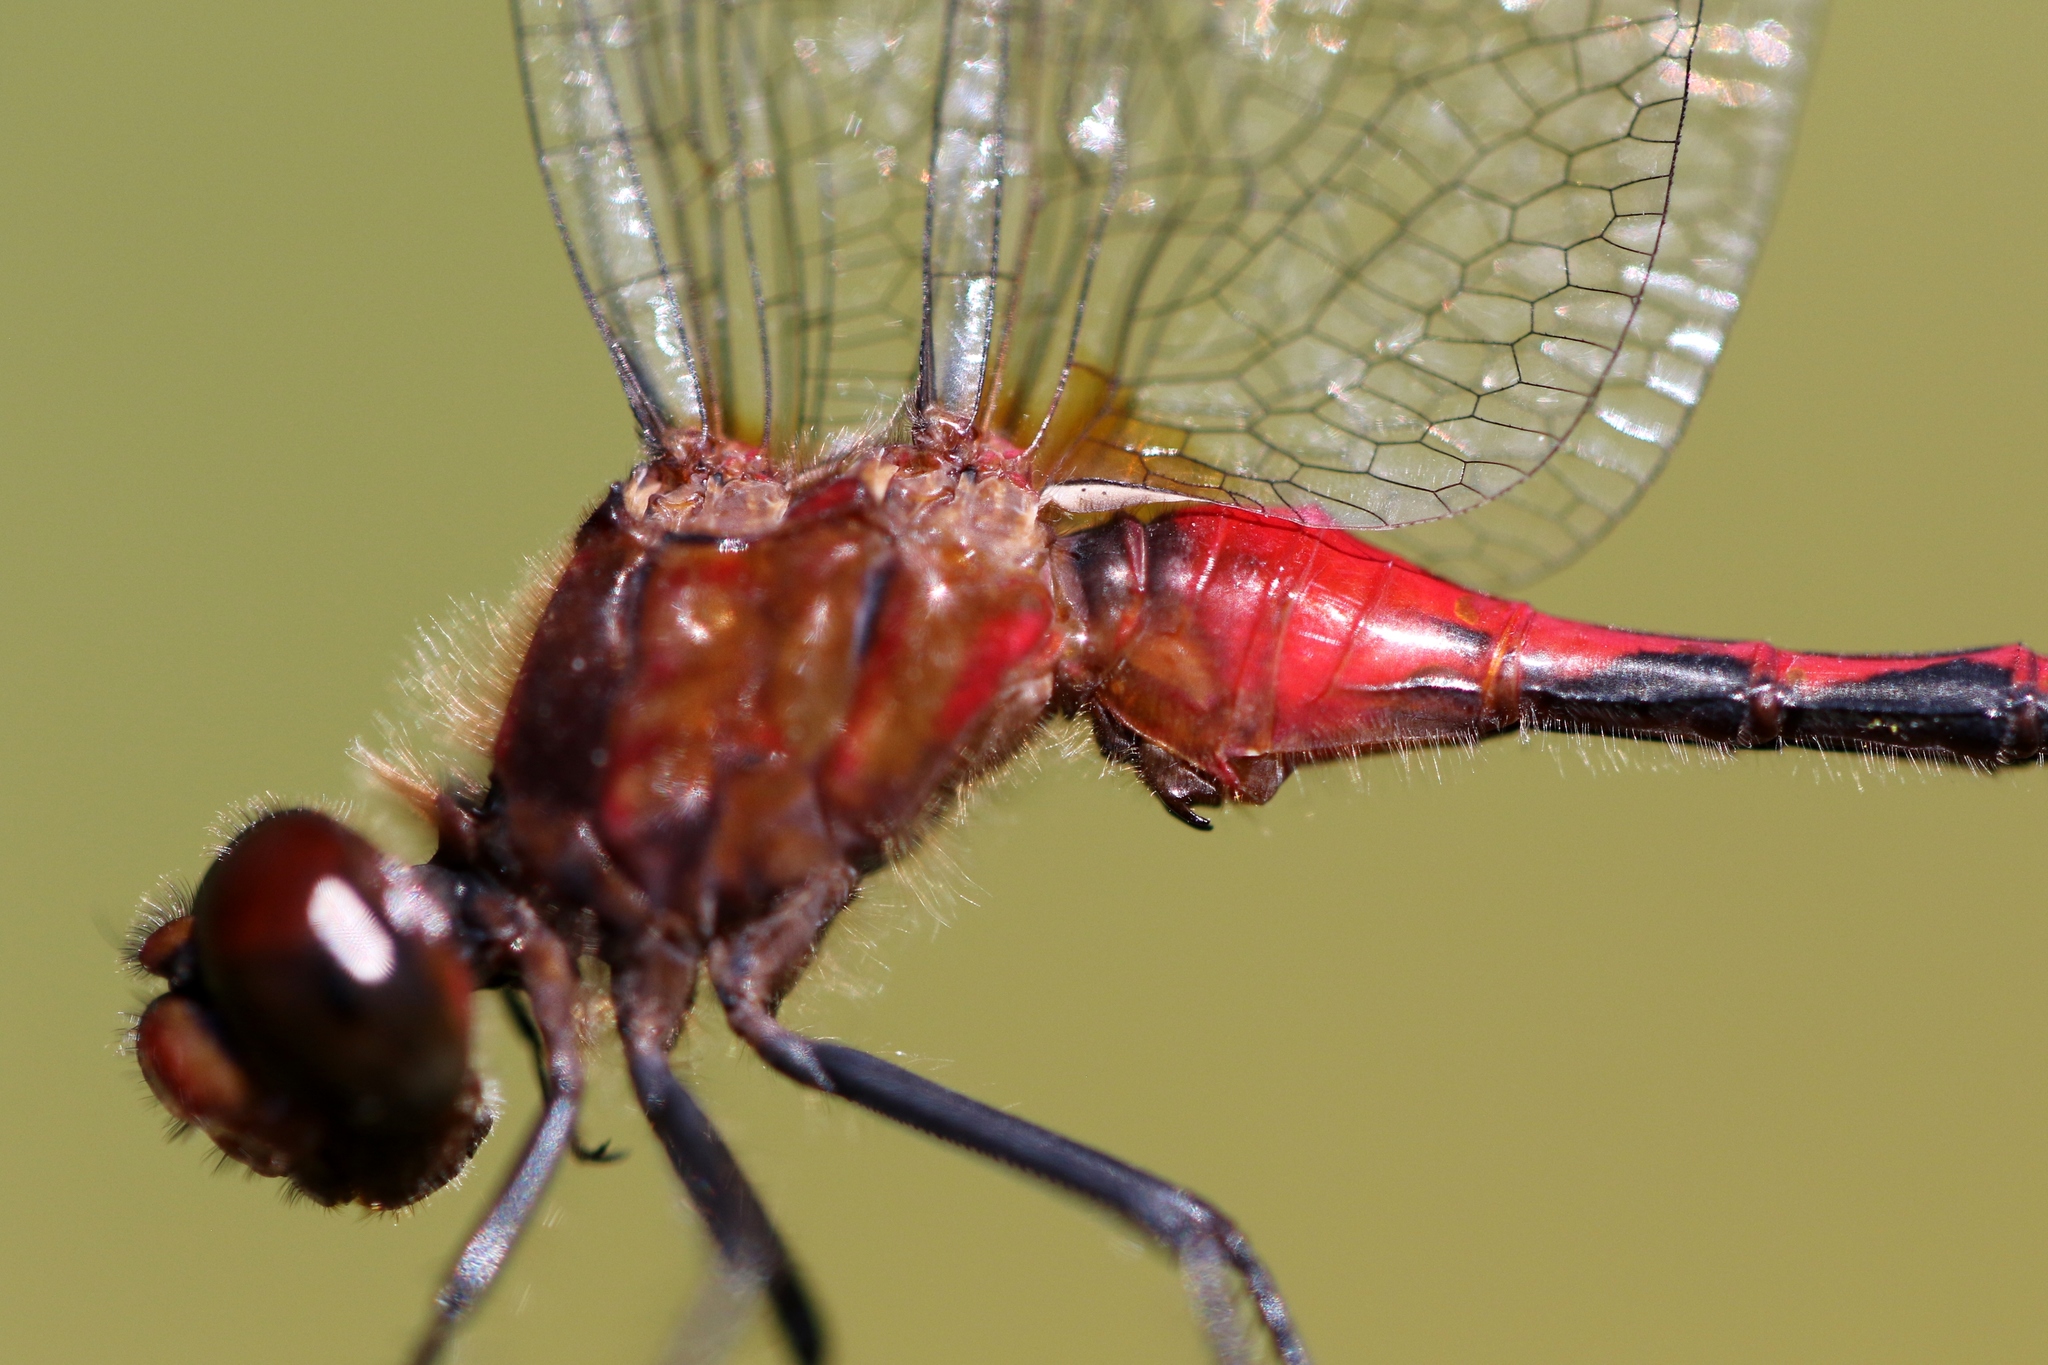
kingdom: Animalia
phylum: Arthropoda
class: Insecta
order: Odonata
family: Libellulidae
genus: Sympetrum
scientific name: Sympetrum internum
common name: Cherry-faced meadowhawk
